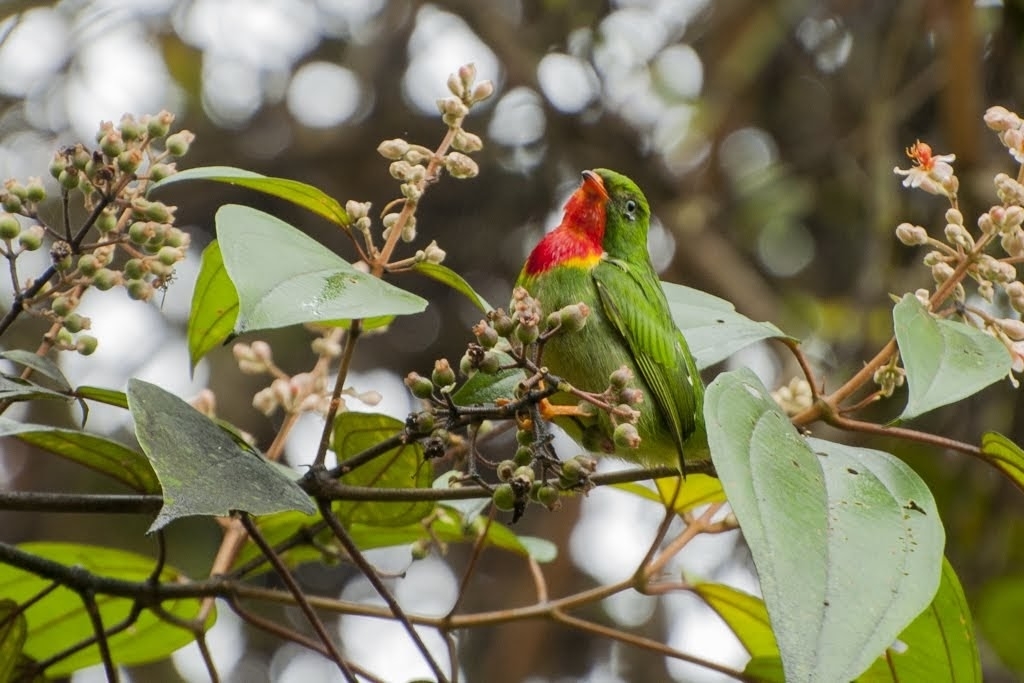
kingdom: Animalia
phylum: Chordata
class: Aves
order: Passeriformes
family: Cotingidae
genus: Pipreola
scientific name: Pipreola chlorolepidota
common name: Fiery-throated fruiteater
